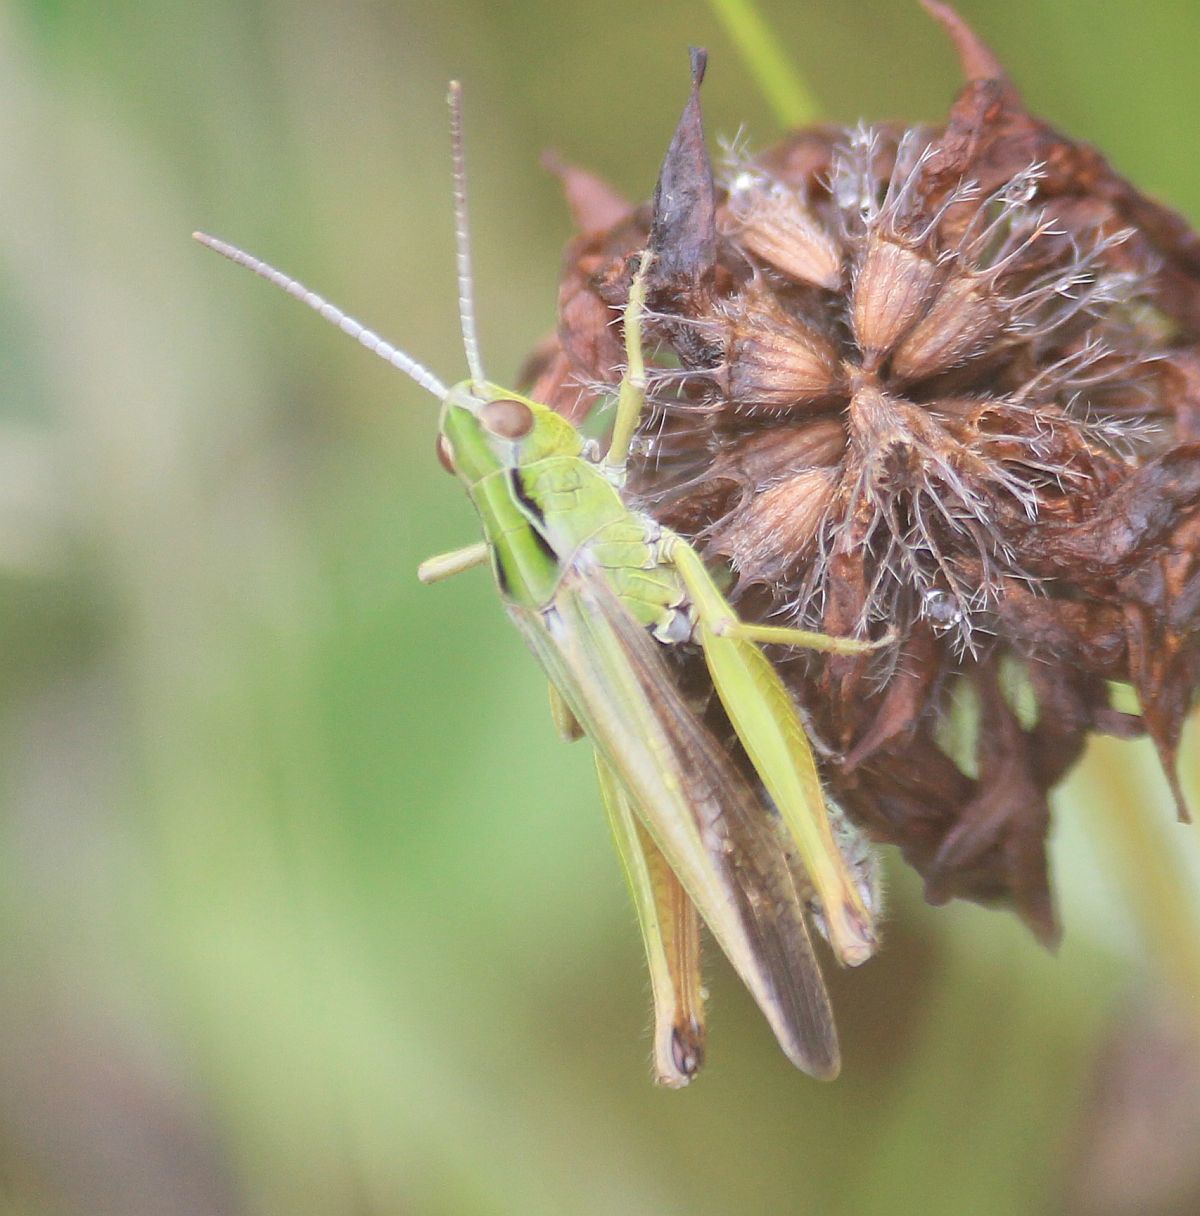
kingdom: Animalia
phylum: Arthropoda
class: Insecta
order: Orthoptera
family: Acrididae
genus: Omocestus
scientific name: Omocestus viridulus
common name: Common green grasshopper
